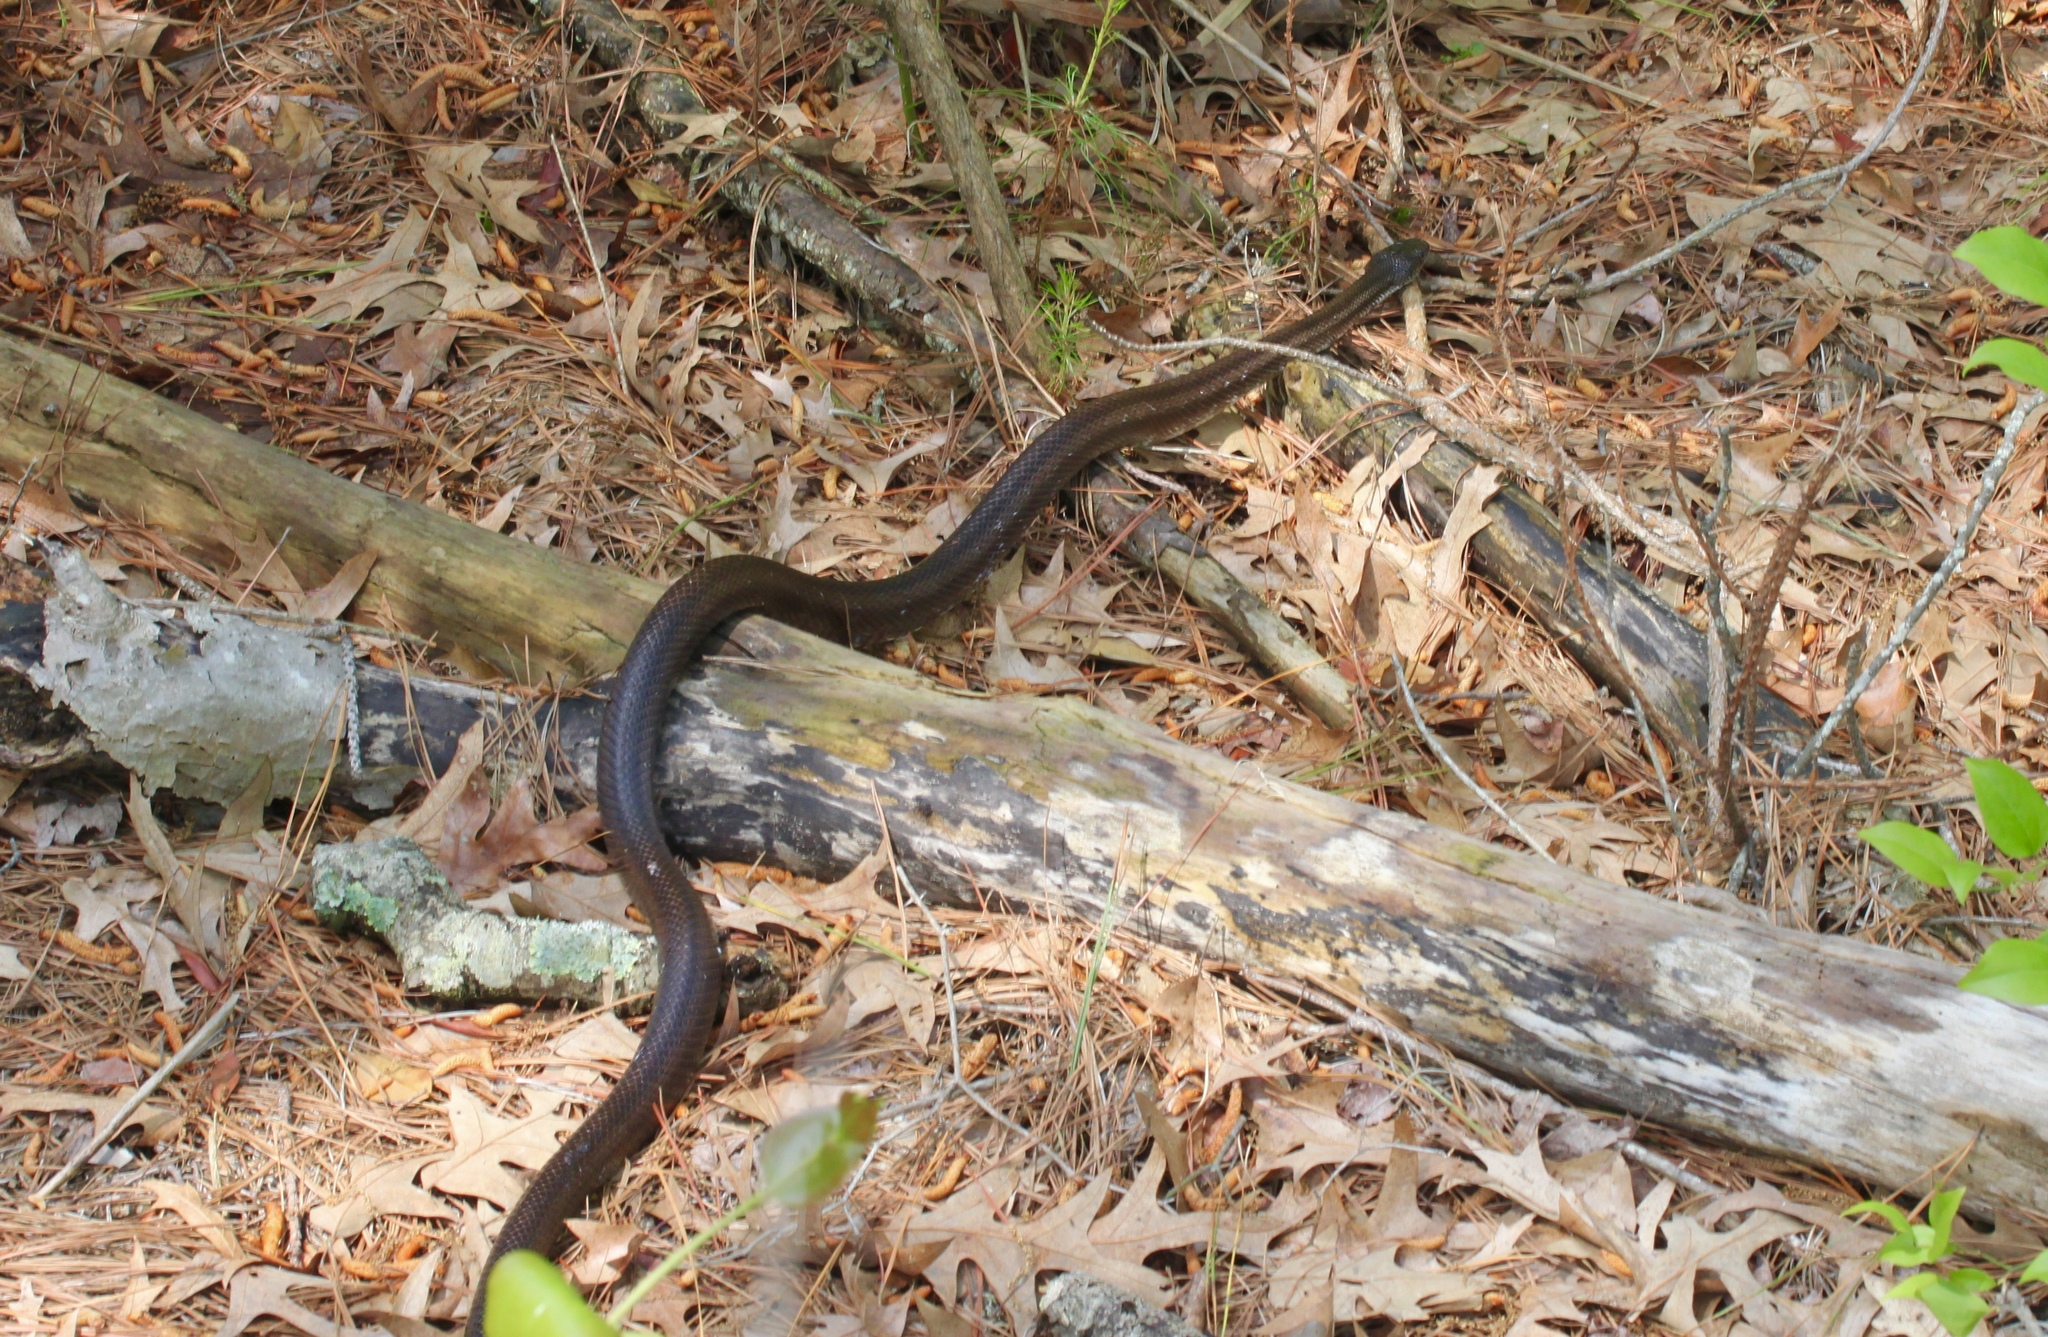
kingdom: Animalia
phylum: Chordata
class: Squamata
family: Colubridae
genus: Pantherophis
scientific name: Pantherophis alleghaniensis
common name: Eastern rat snake
